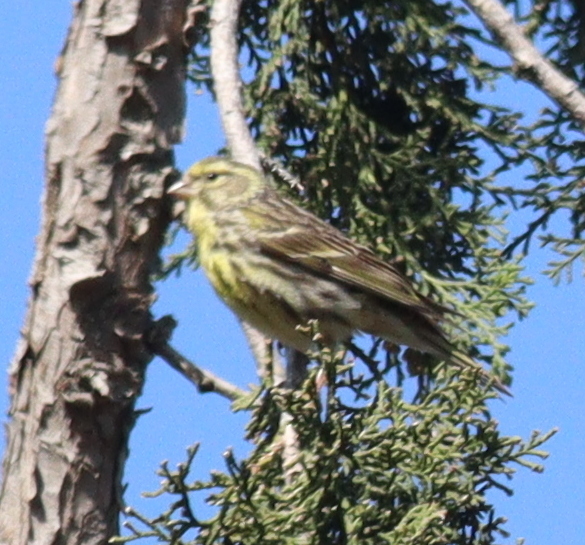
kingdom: Animalia
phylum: Chordata
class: Aves
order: Passeriformes
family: Fringillidae
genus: Serinus
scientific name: Serinus serinus
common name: European serin
